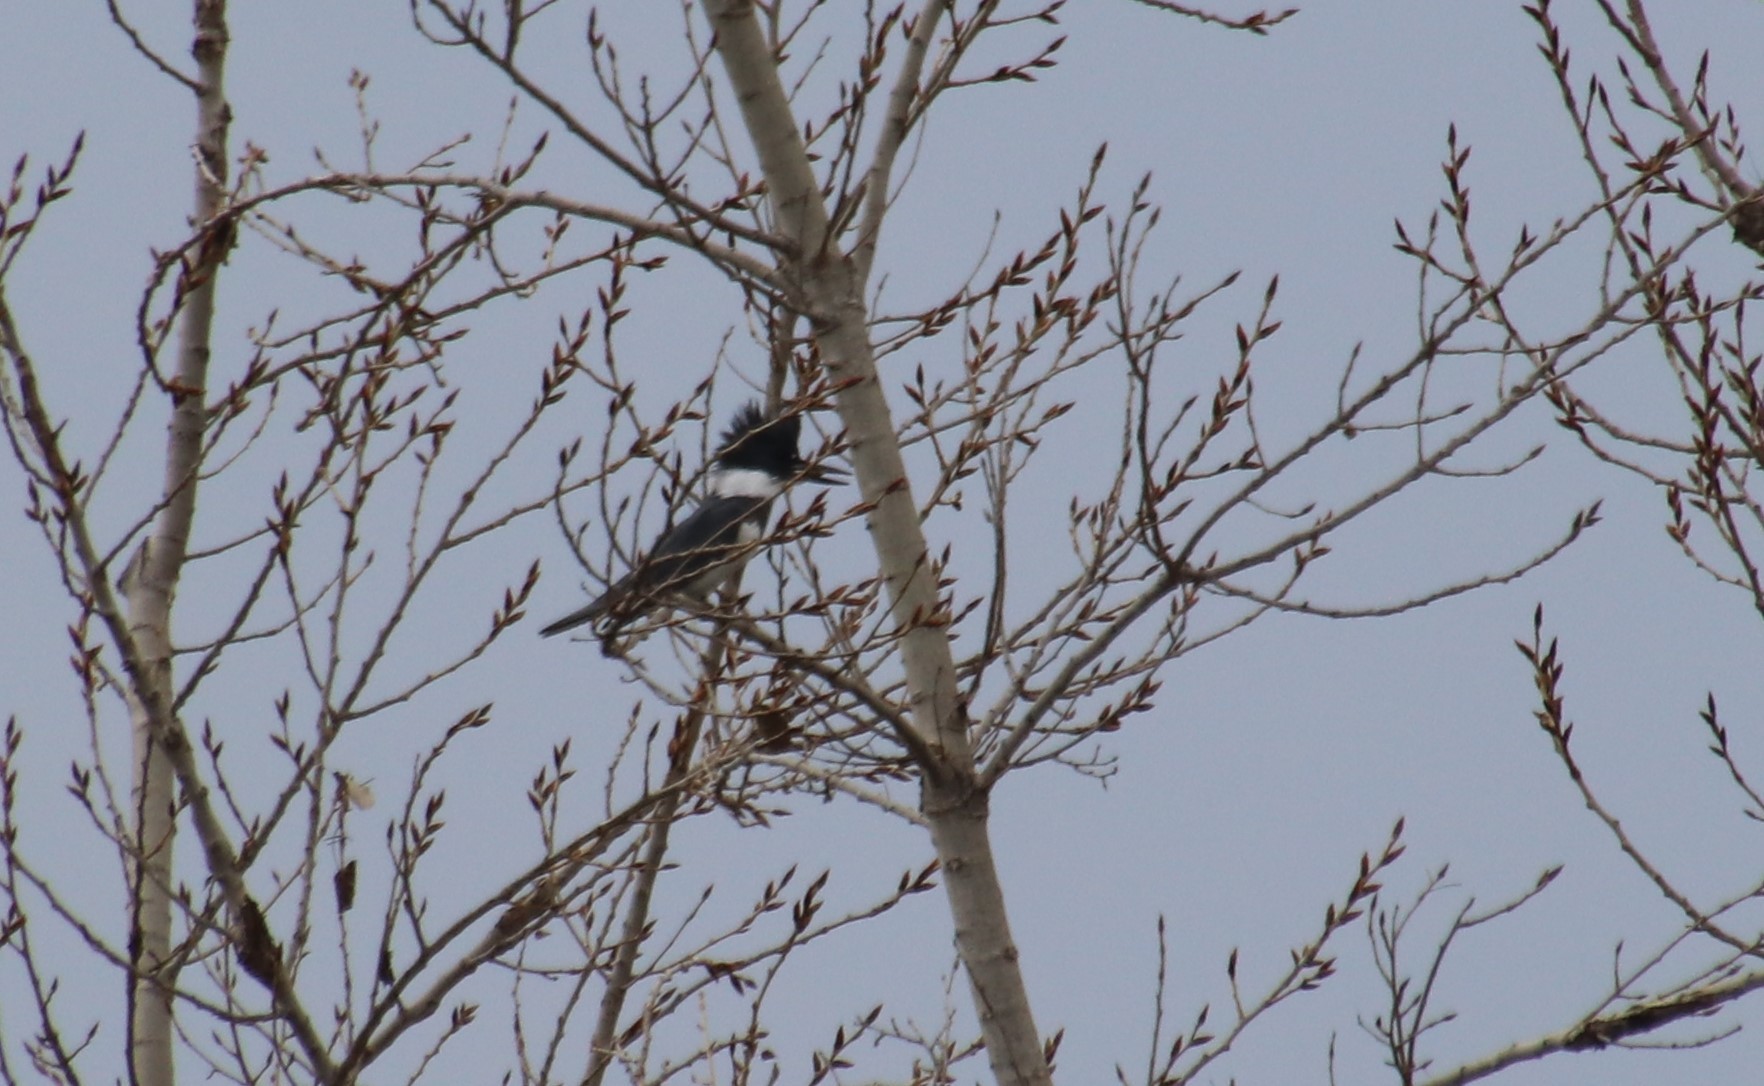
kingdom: Animalia
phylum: Chordata
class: Aves
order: Coraciiformes
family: Alcedinidae
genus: Megaceryle
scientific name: Megaceryle alcyon
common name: Belted kingfisher
